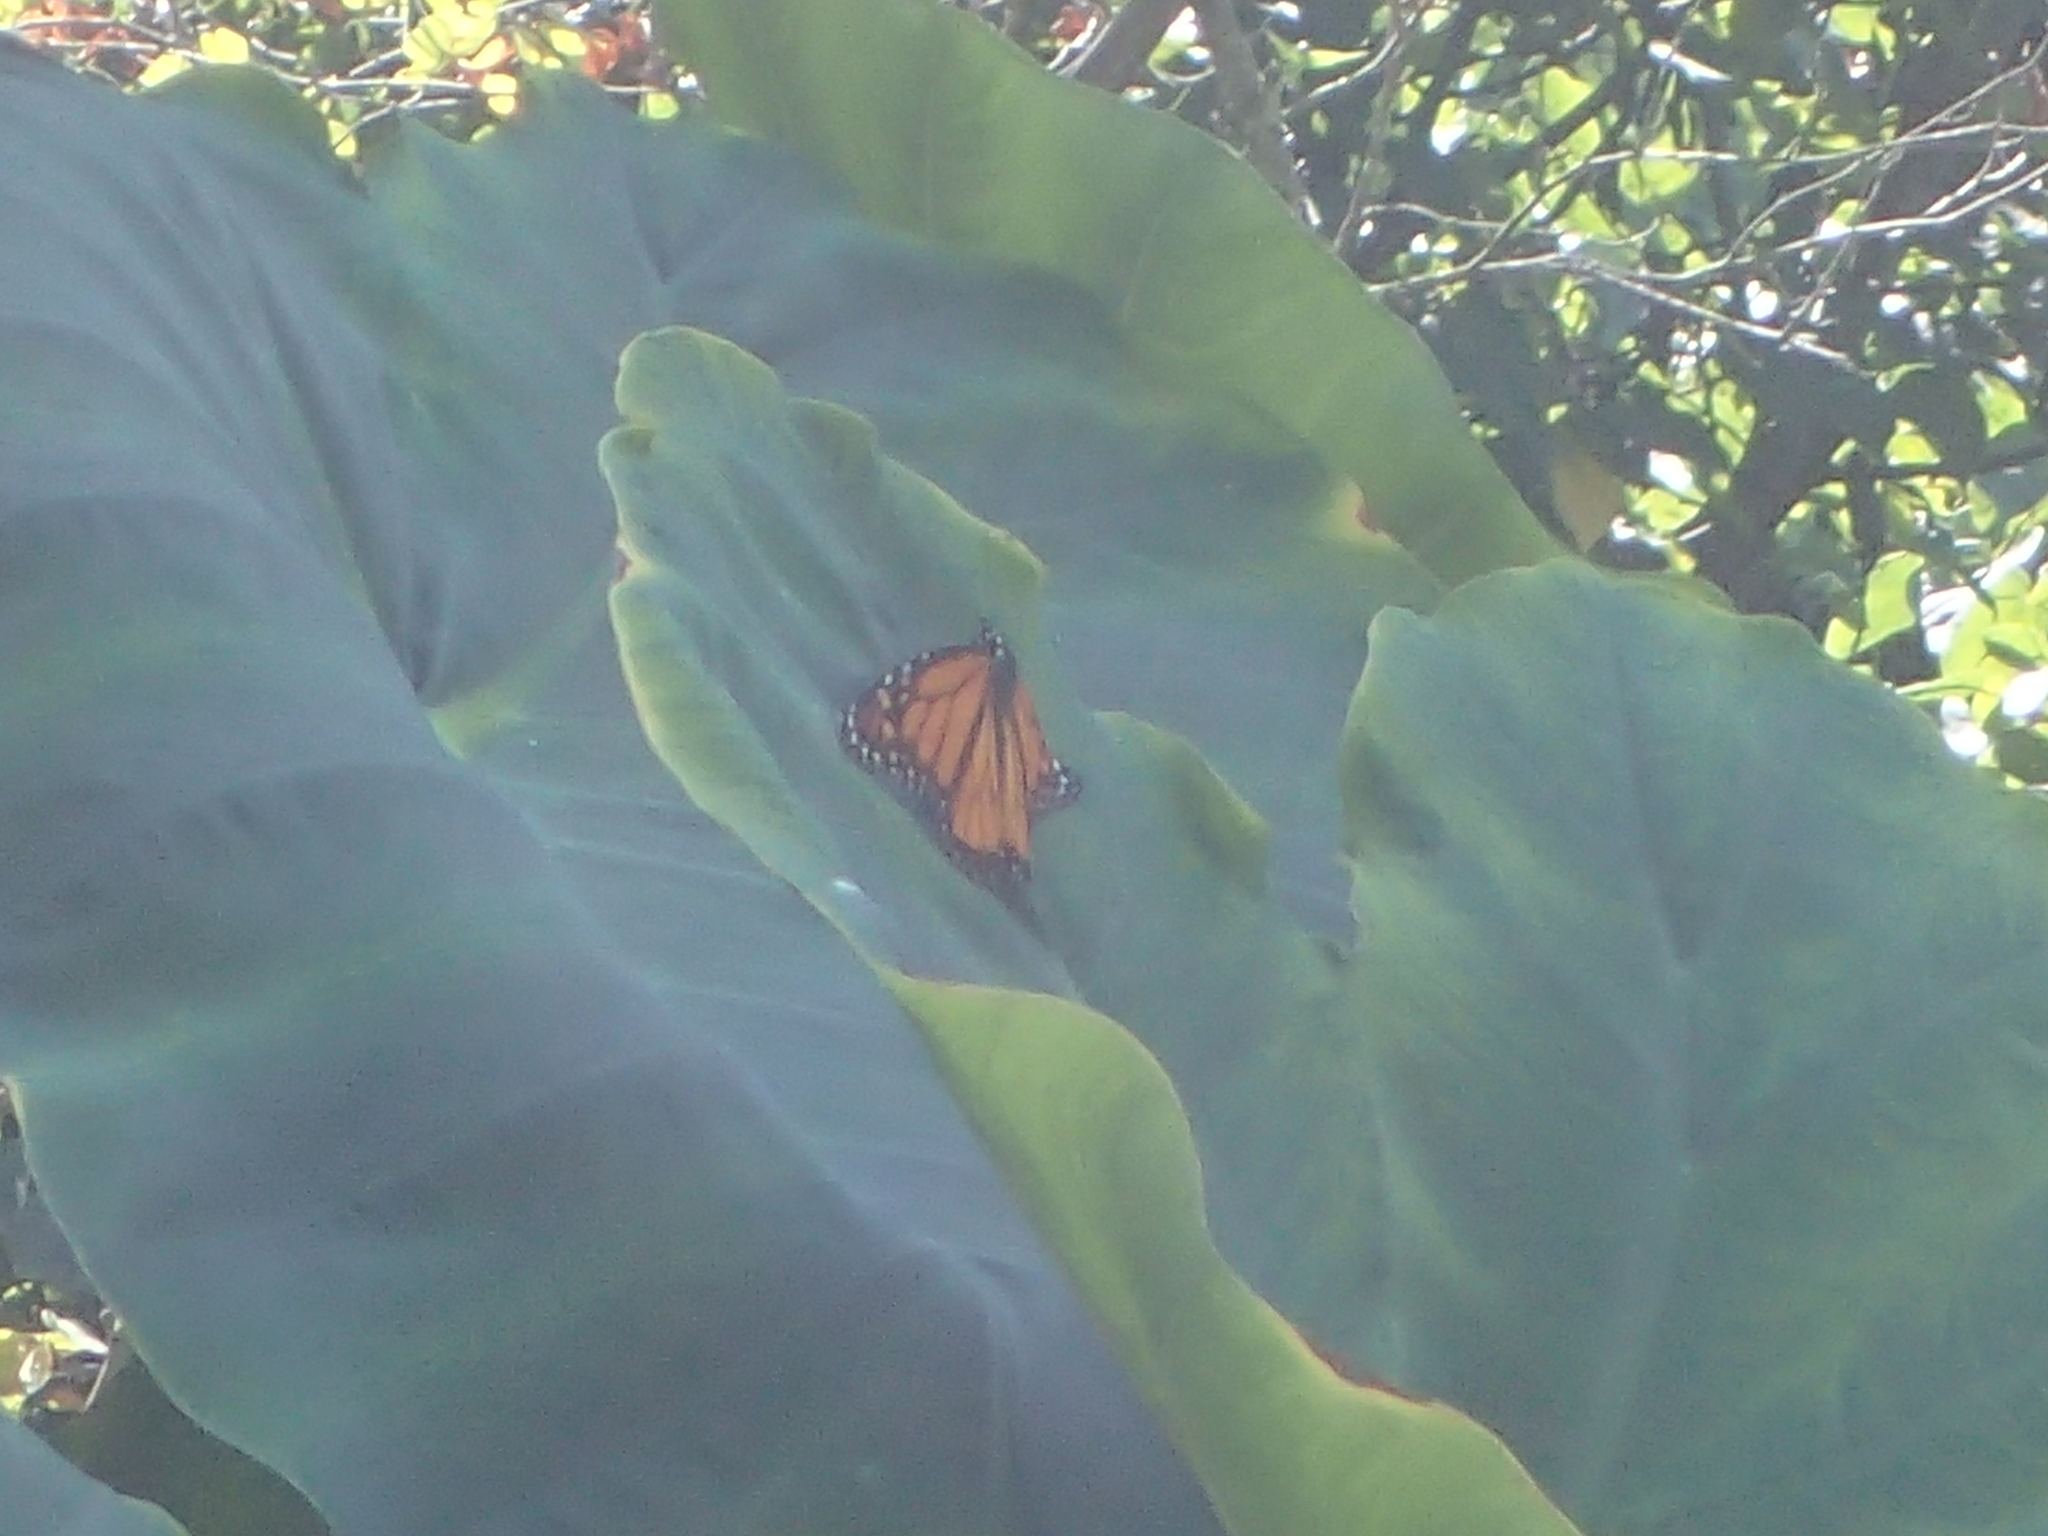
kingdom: Animalia
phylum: Arthropoda
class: Insecta
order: Lepidoptera
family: Nymphalidae
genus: Danaus
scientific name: Danaus plexippus
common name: Monarch
